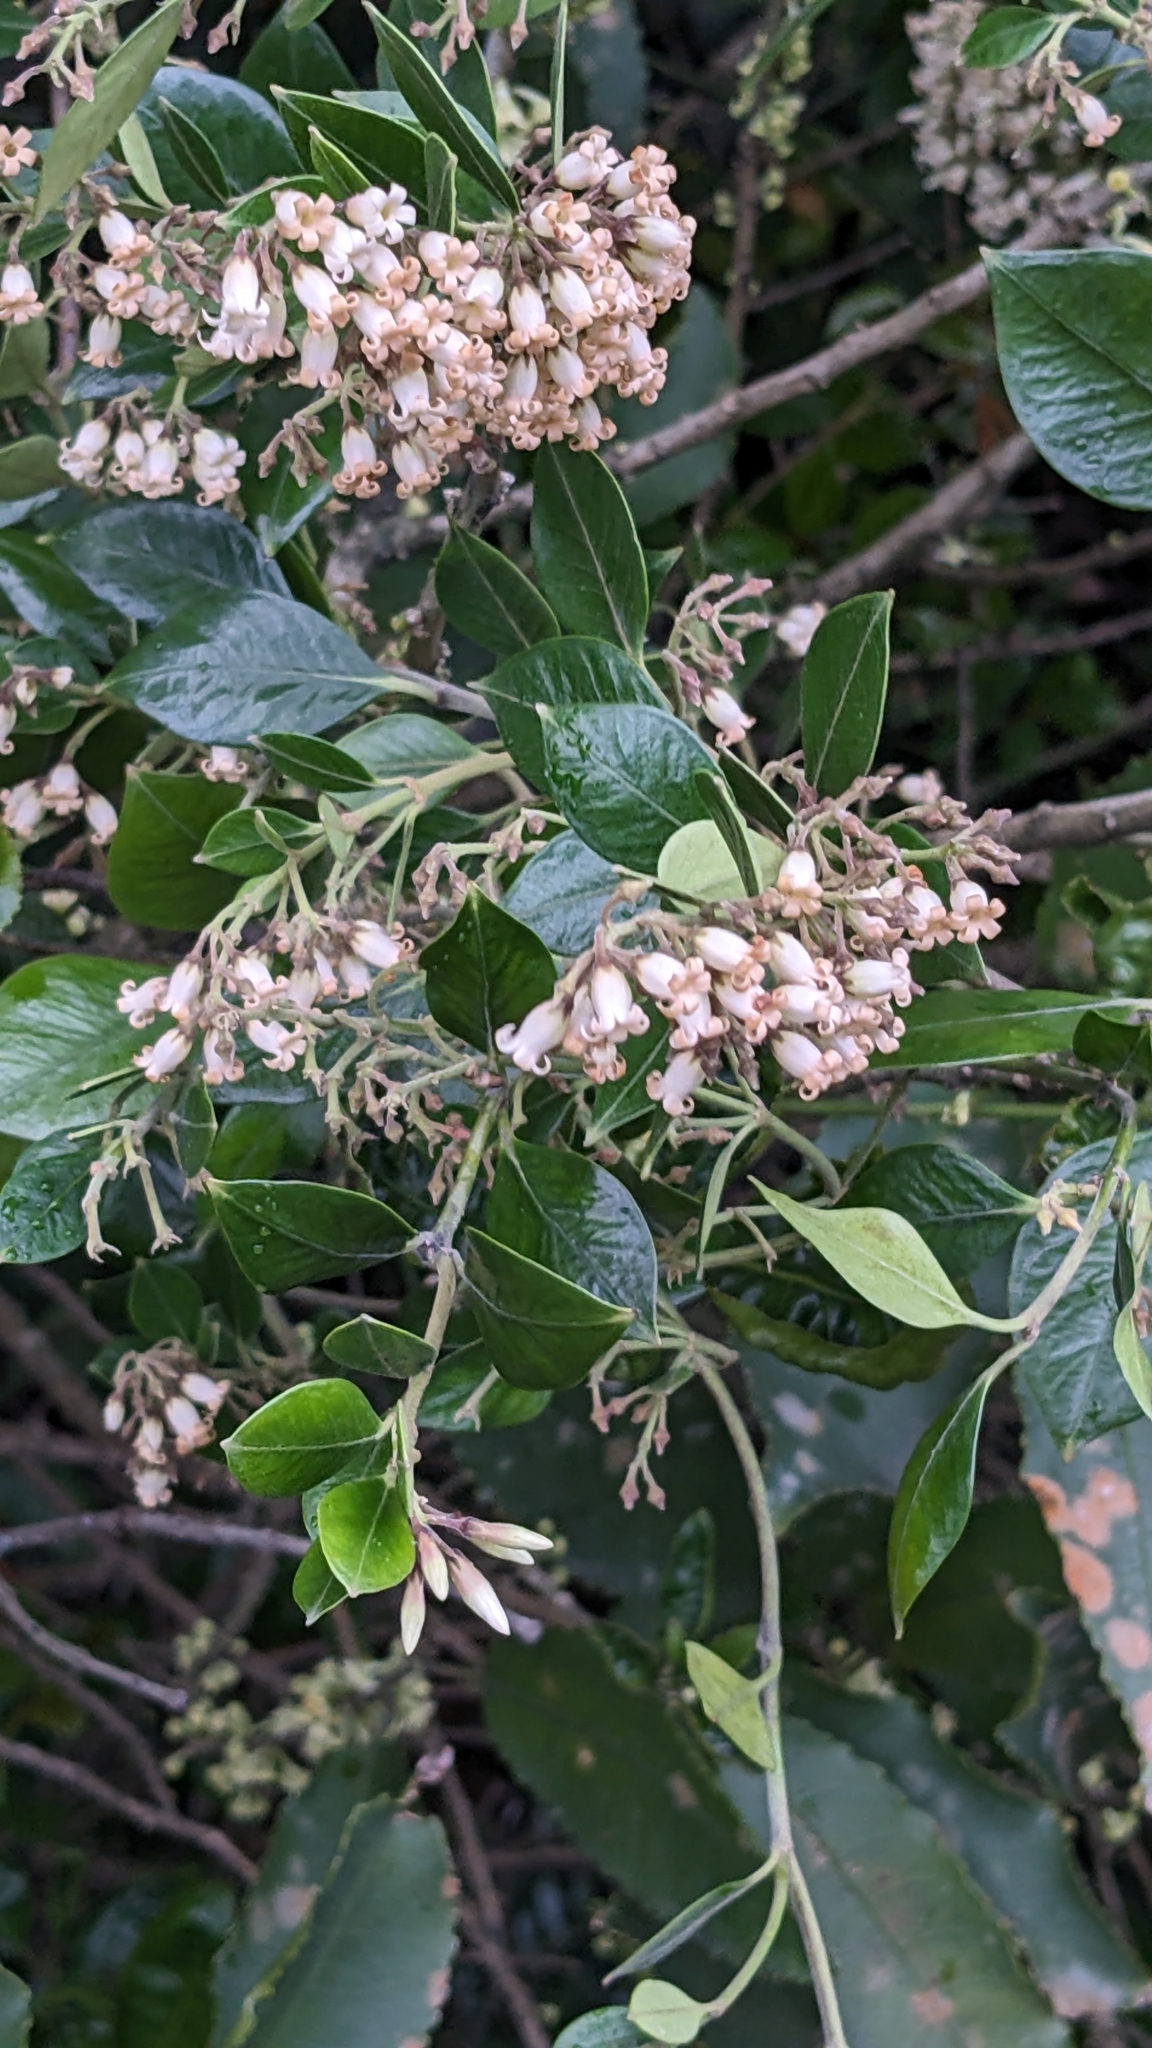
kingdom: Plantae
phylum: Tracheophyta
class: Magnoliopsida
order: Gentianales
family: Apocynaceae
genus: Parsonsia
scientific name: Parsonsia heterophylla
